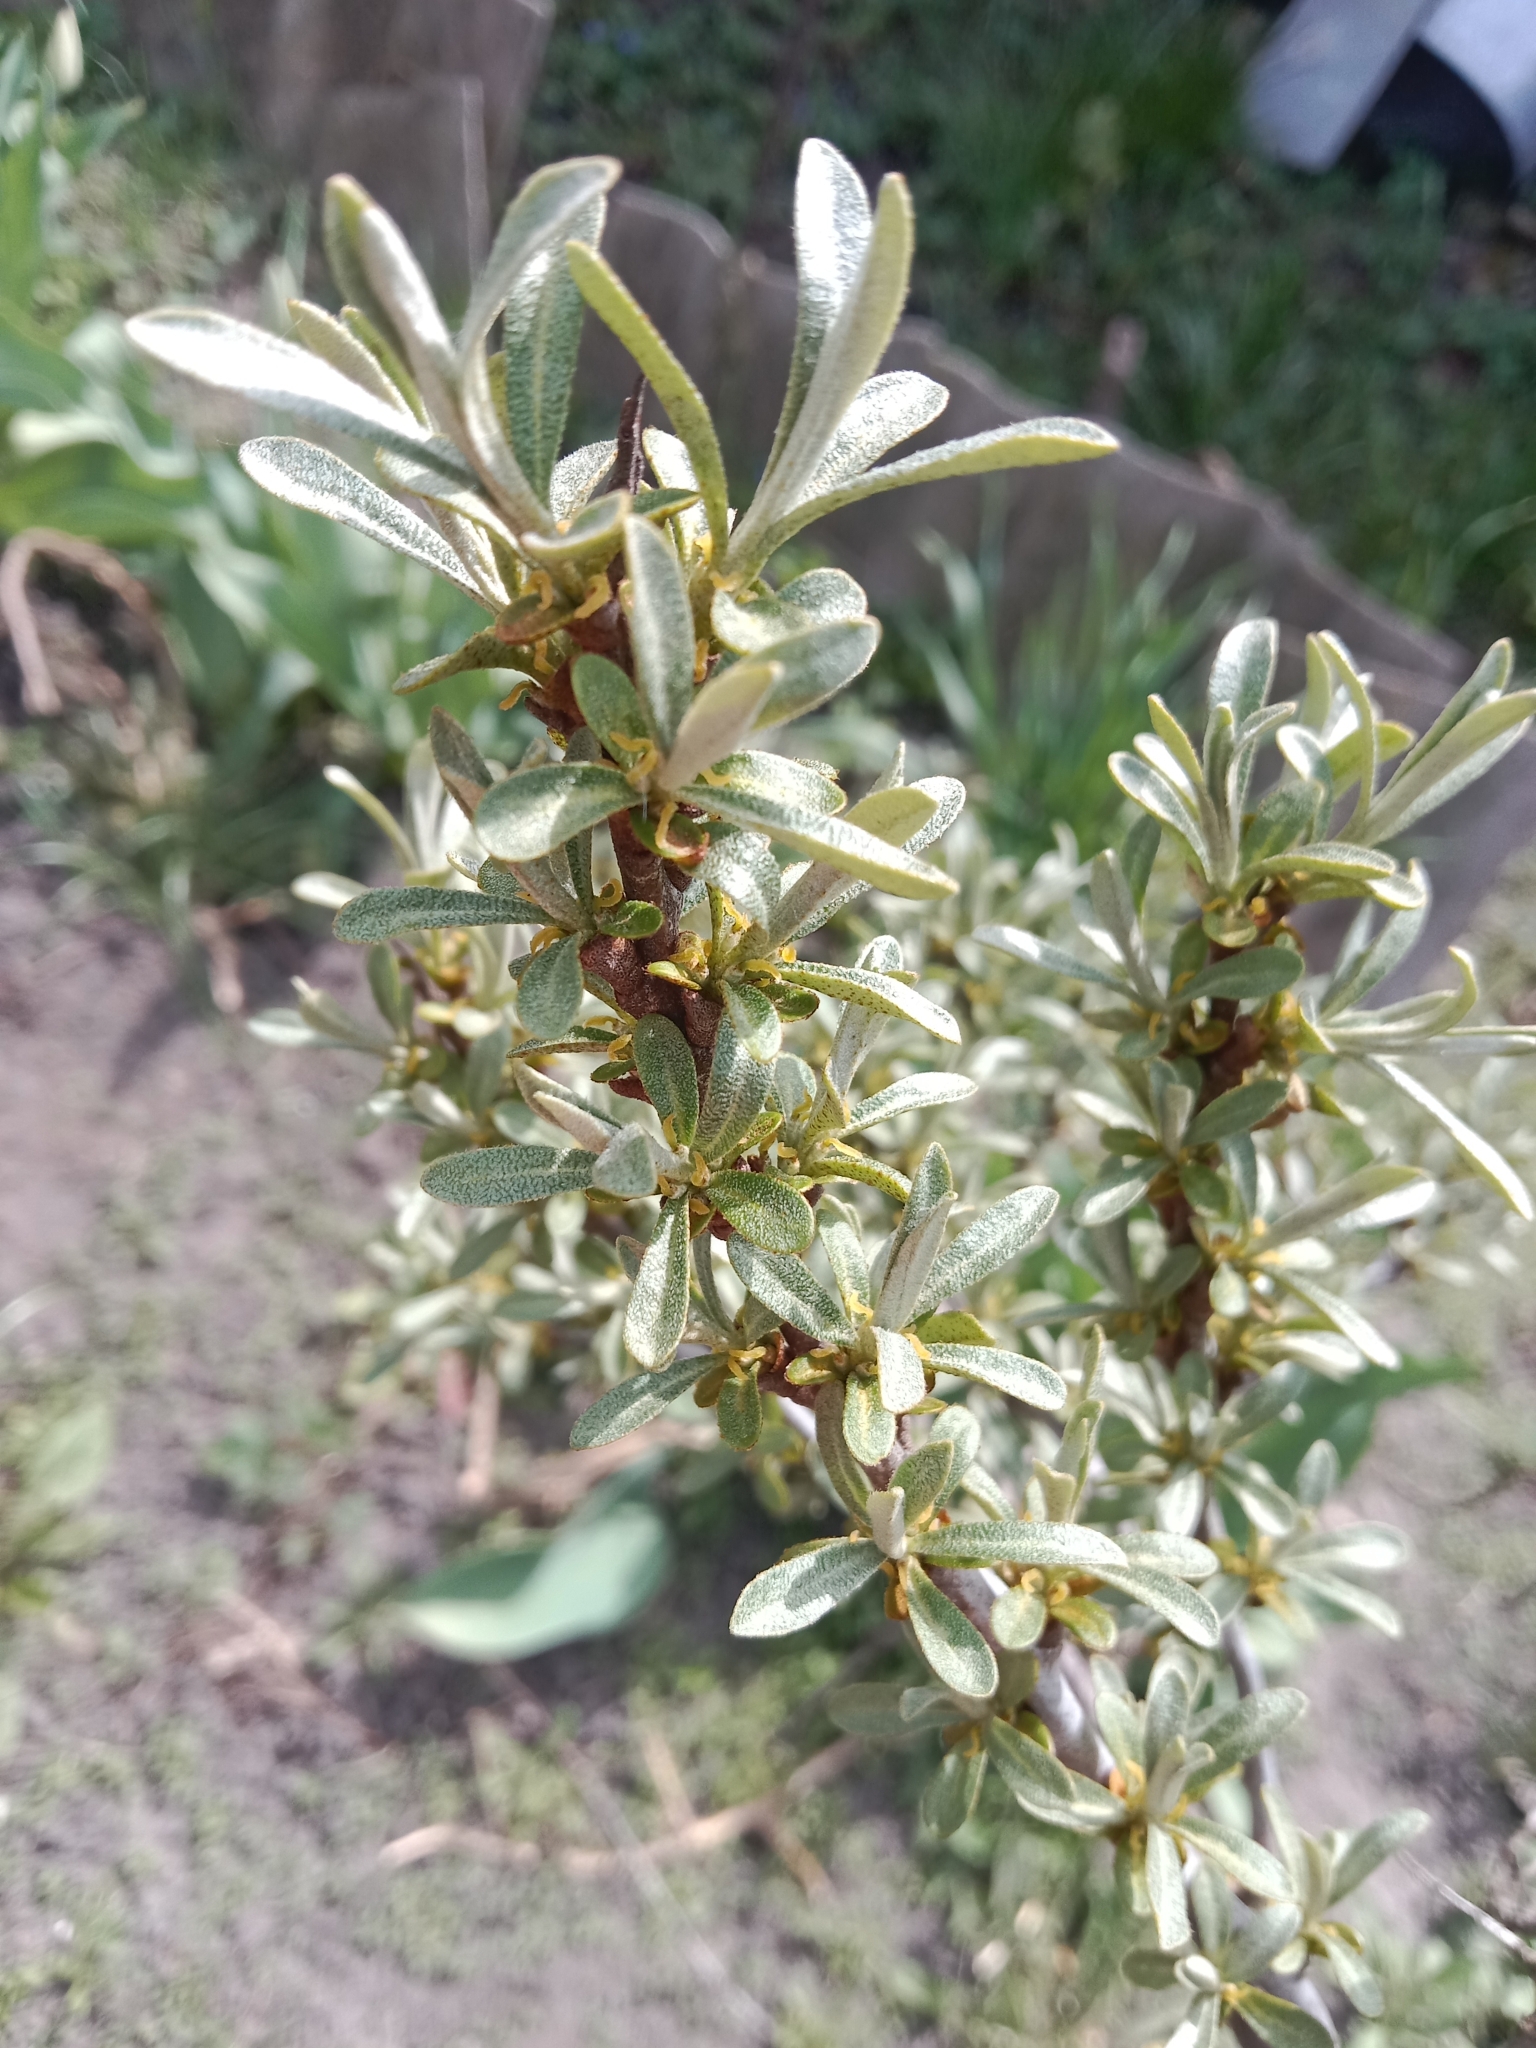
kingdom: Plantae
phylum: Tracheophyta
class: Magnoliopsida
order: Rosales
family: Elaeagnaceae
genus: Hippophae
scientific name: Hippophae rhamnoides
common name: Sea-buckthorn
